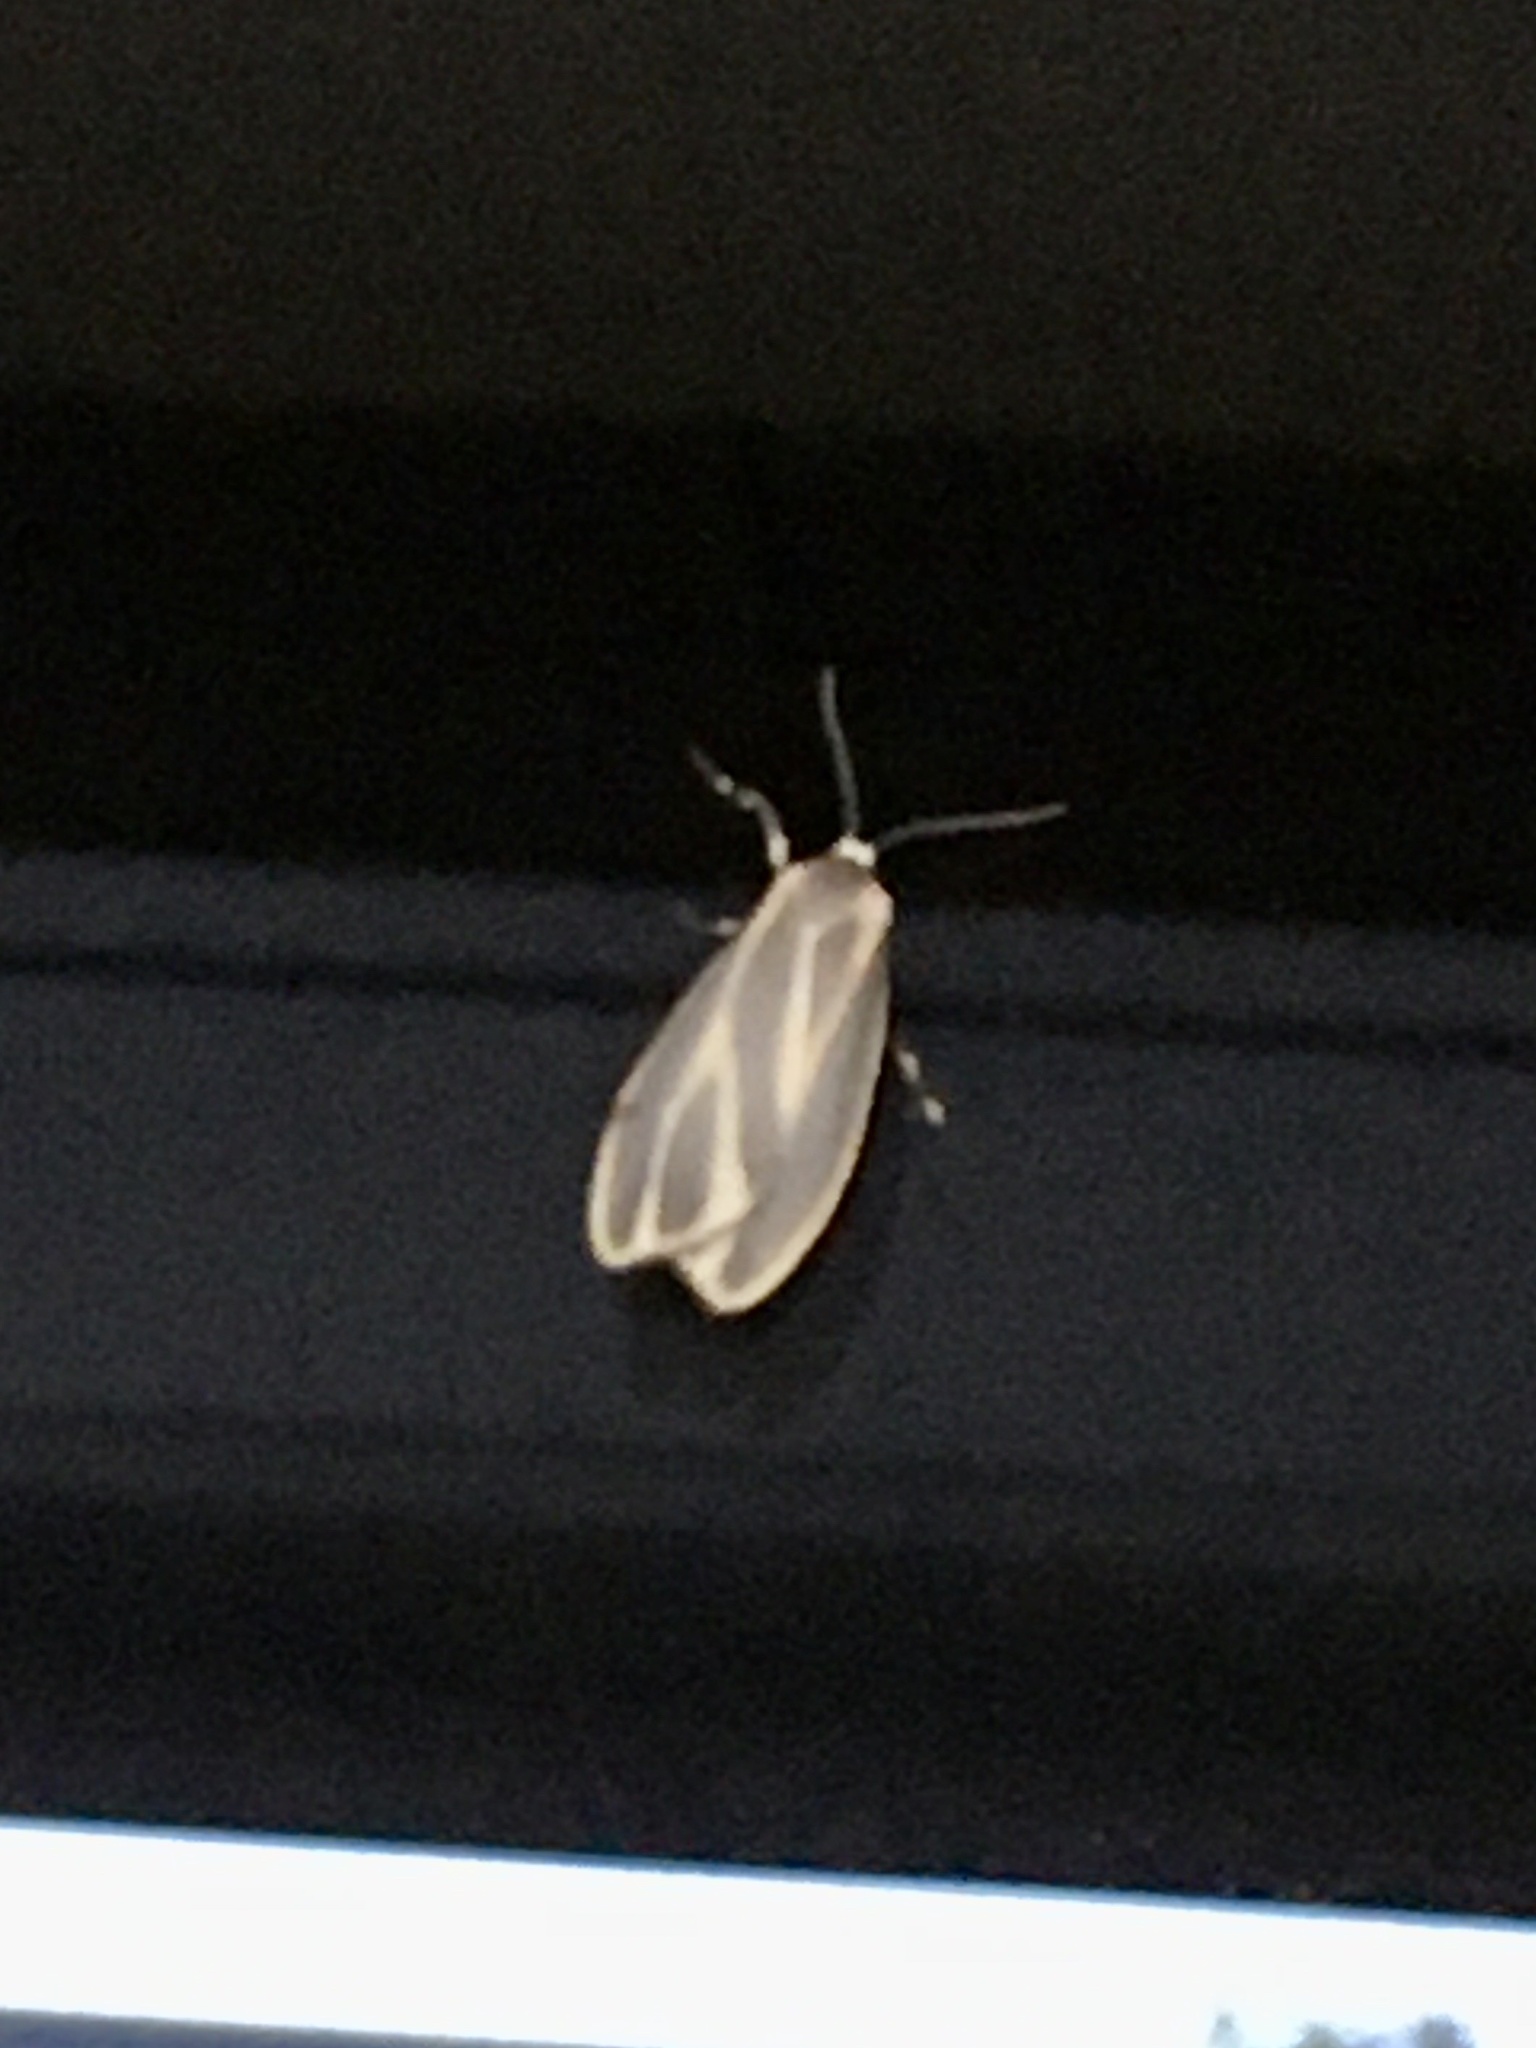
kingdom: Animalia
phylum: Arthropoda
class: Insecta
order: Lepidoptera
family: Erebidae
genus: Hypoprepia
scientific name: Hypoprepia fucosa
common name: Painted lichen moth
